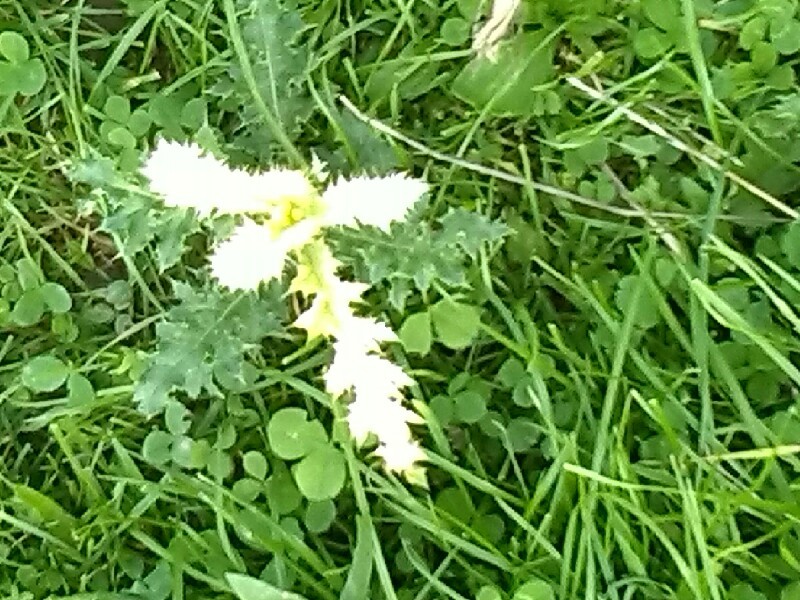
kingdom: Bacteria
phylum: Proteobacteria
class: Gammaproteobacteria
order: Pseudomonadales
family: Pseudomonadaceae
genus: Pseudomonas
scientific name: Pseudomonas syringae
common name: Bacterial speck
